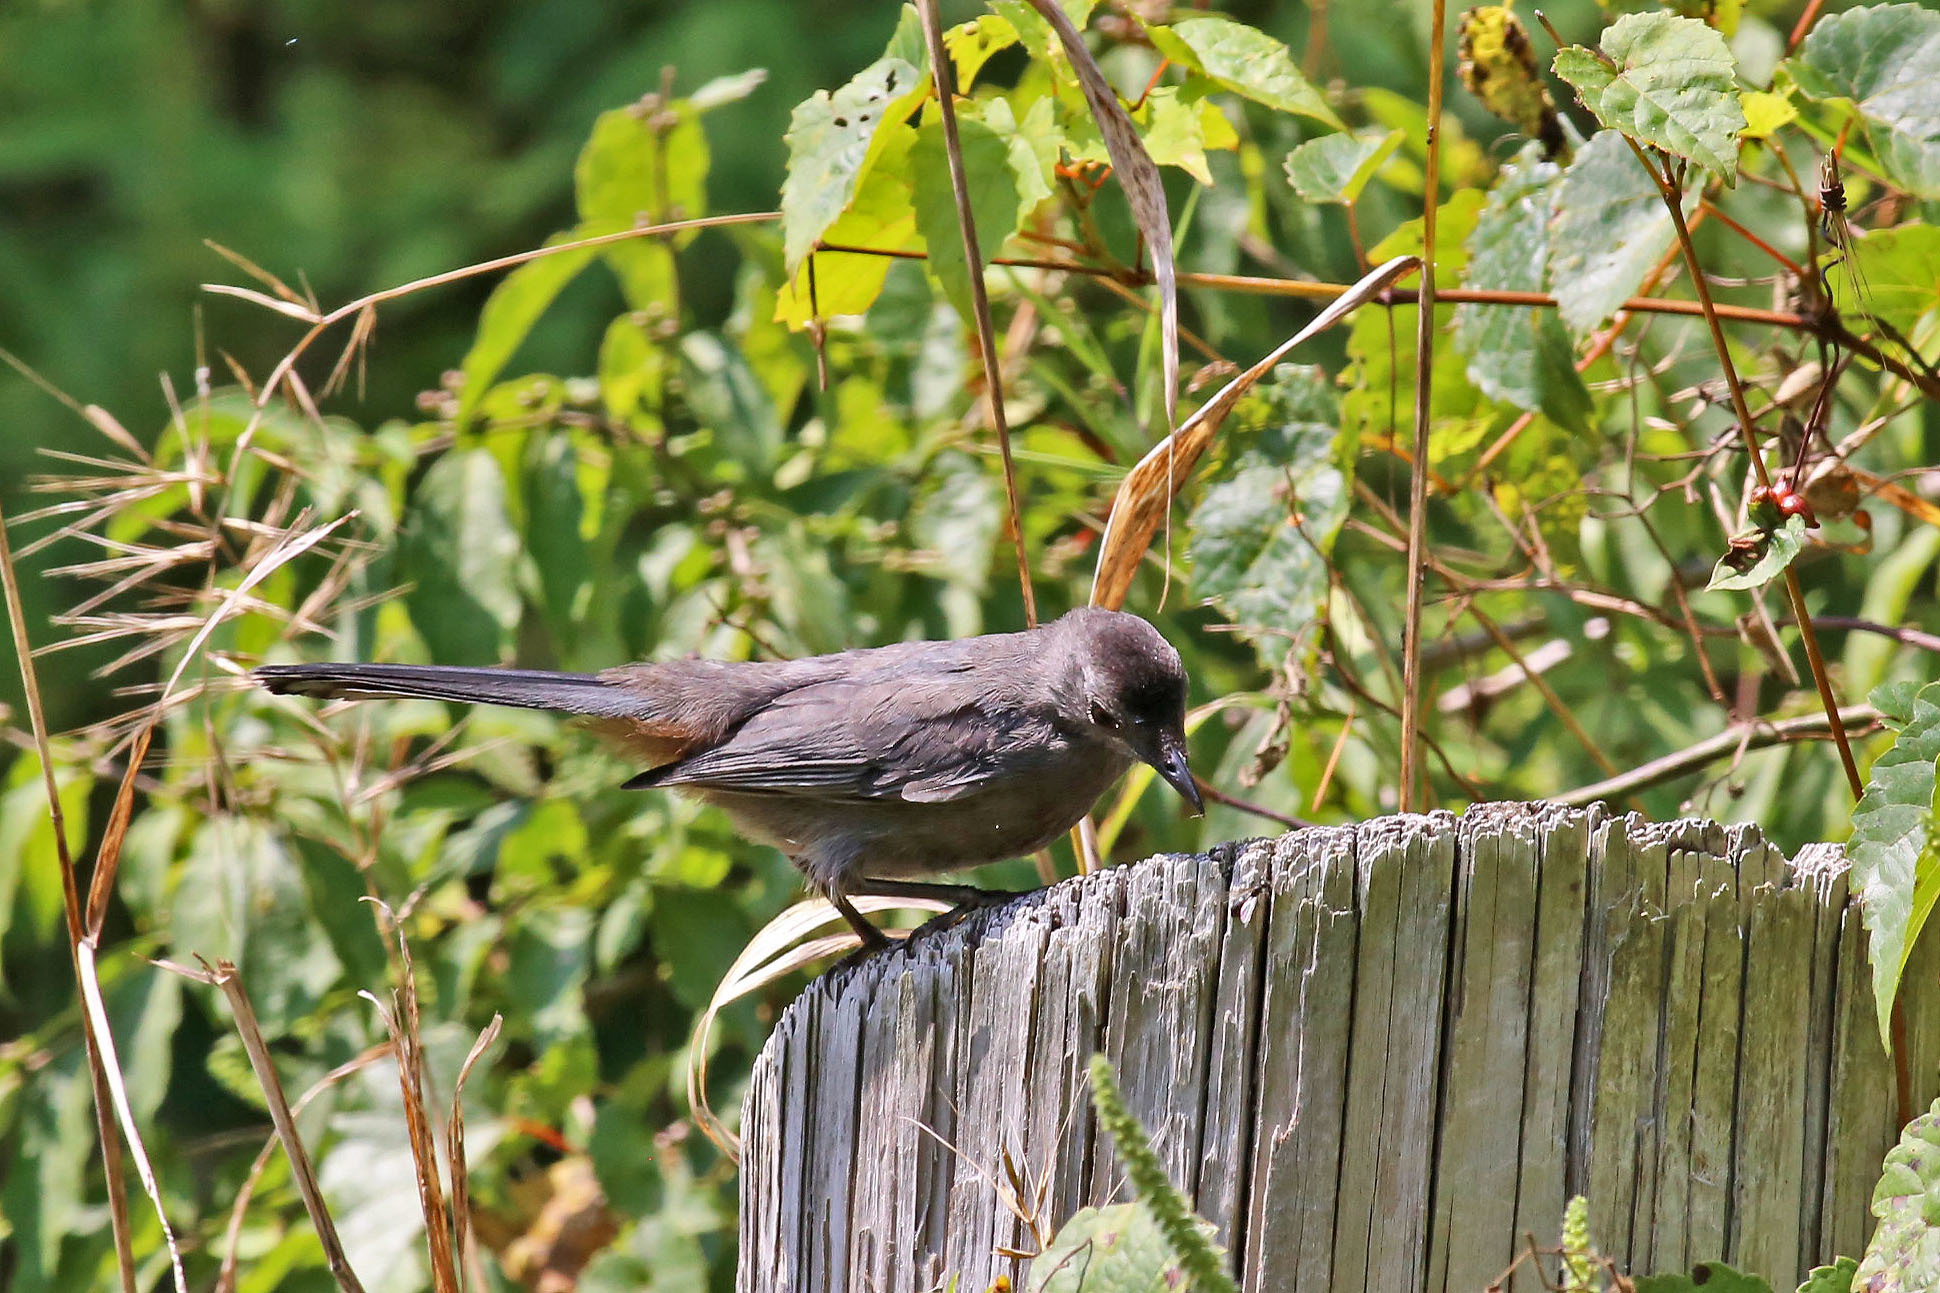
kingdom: Animalia
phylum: Chordata
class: Aves
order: Passeriformes
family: Mimidae
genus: Dumetella
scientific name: Dumetella carolinensis
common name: Gray catbird
